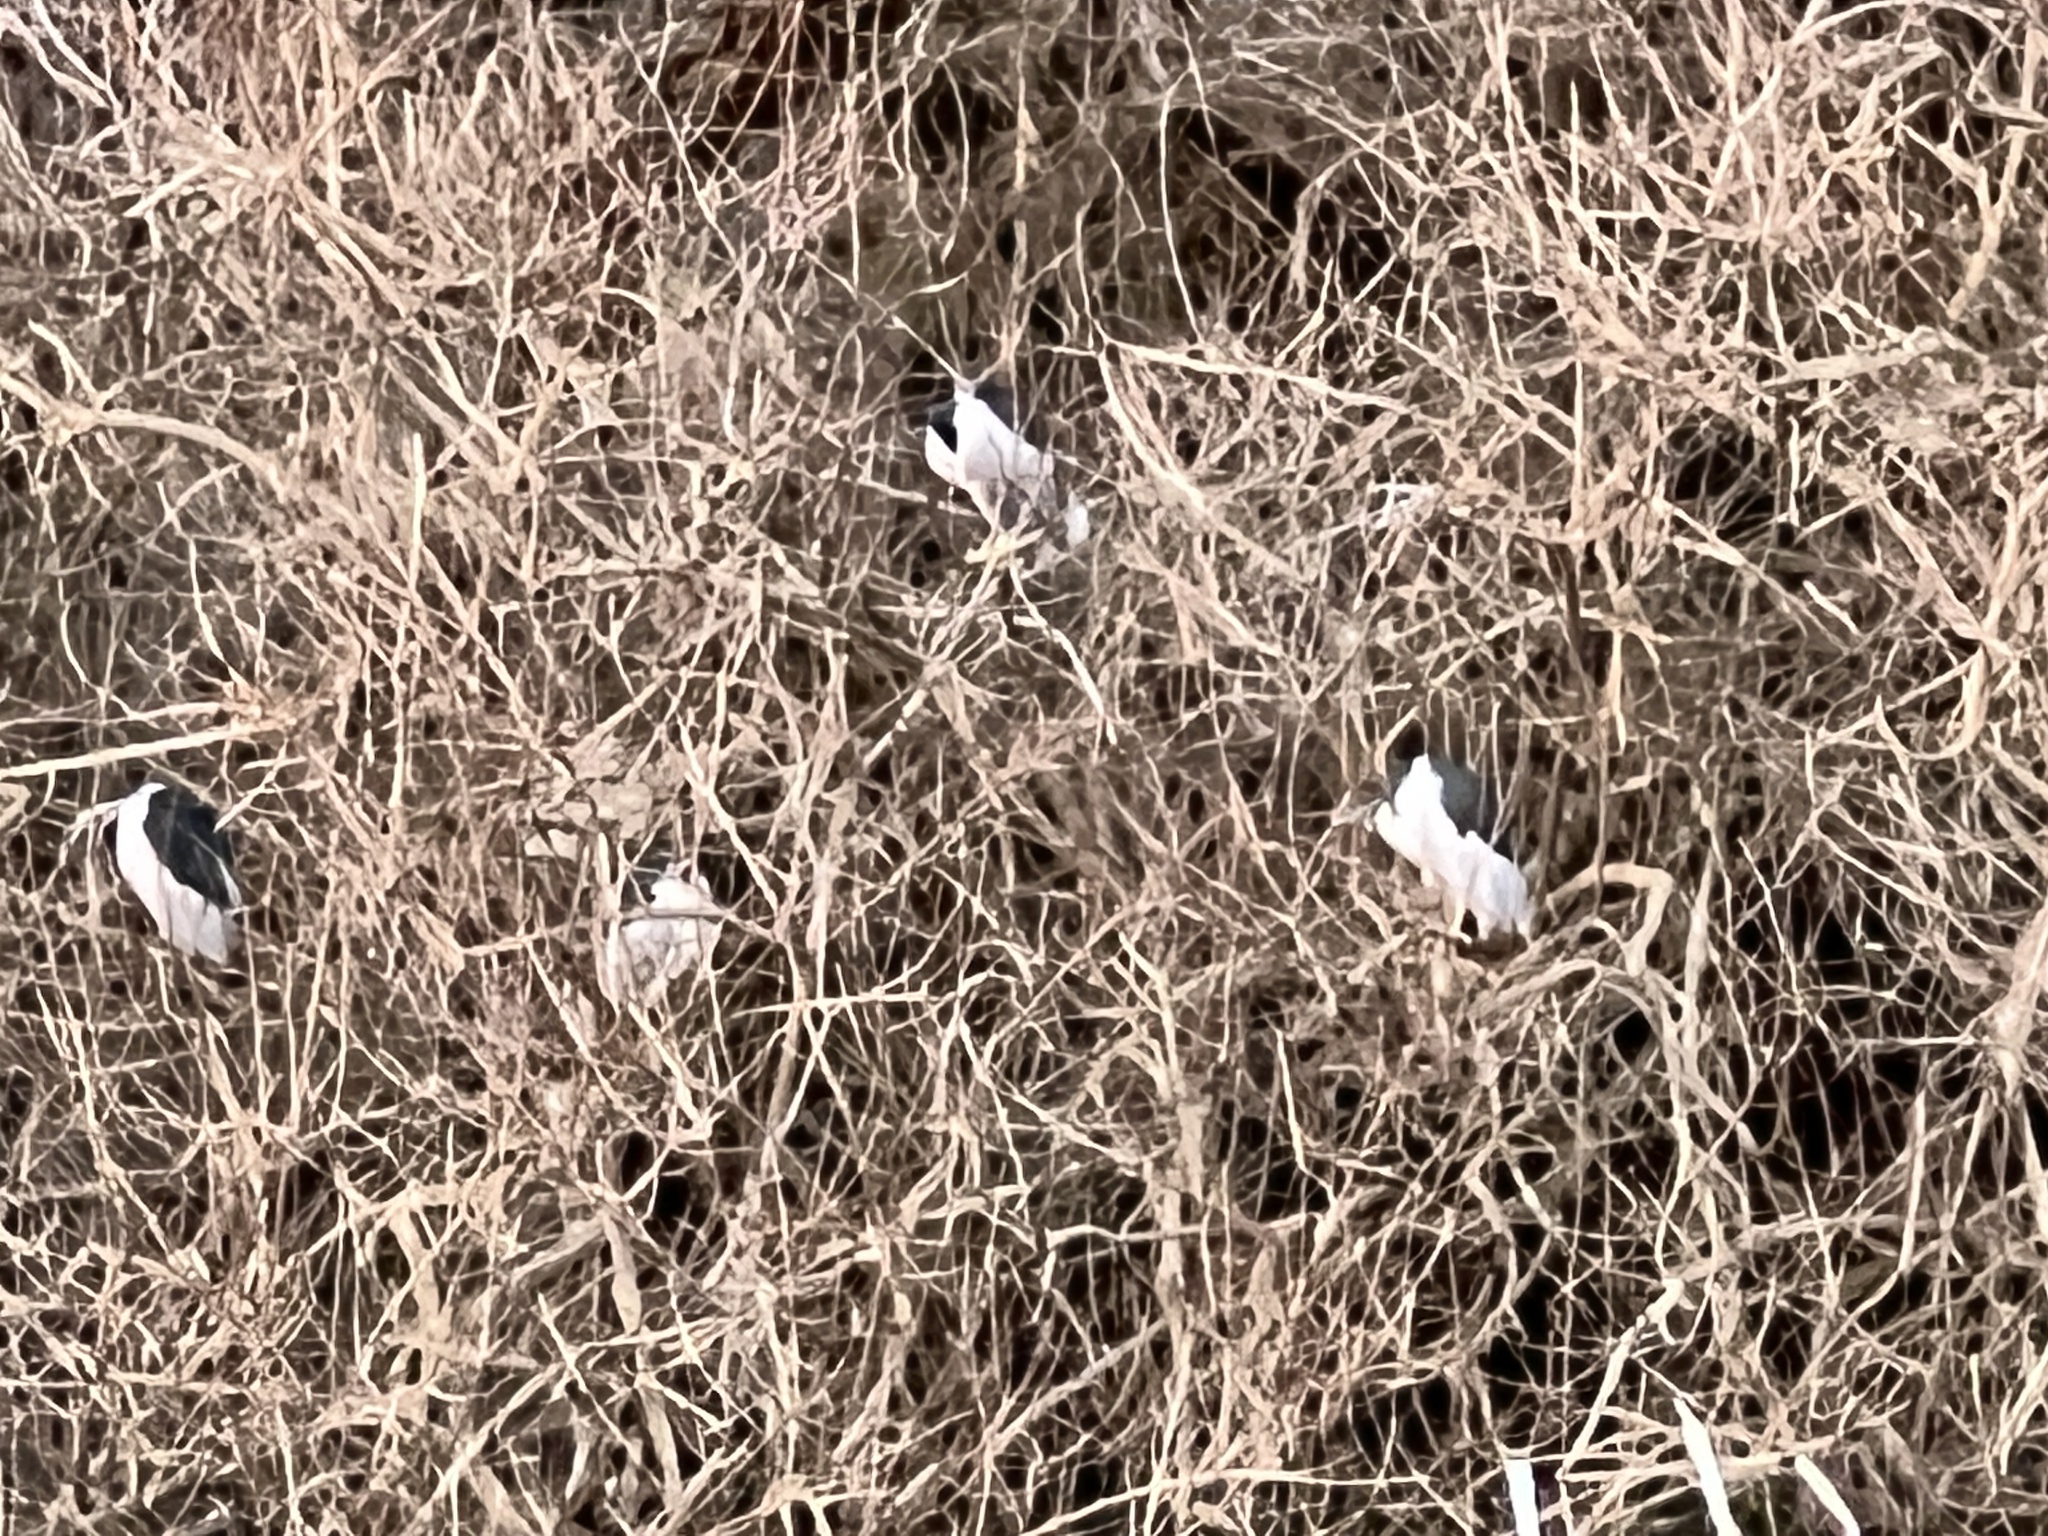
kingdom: Animalia
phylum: Chordata
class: Aves
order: Pelecaniformes
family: Ardeidae
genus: Nycticorax
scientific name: Nycticorax nycticorax
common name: Black-crowned night heron
